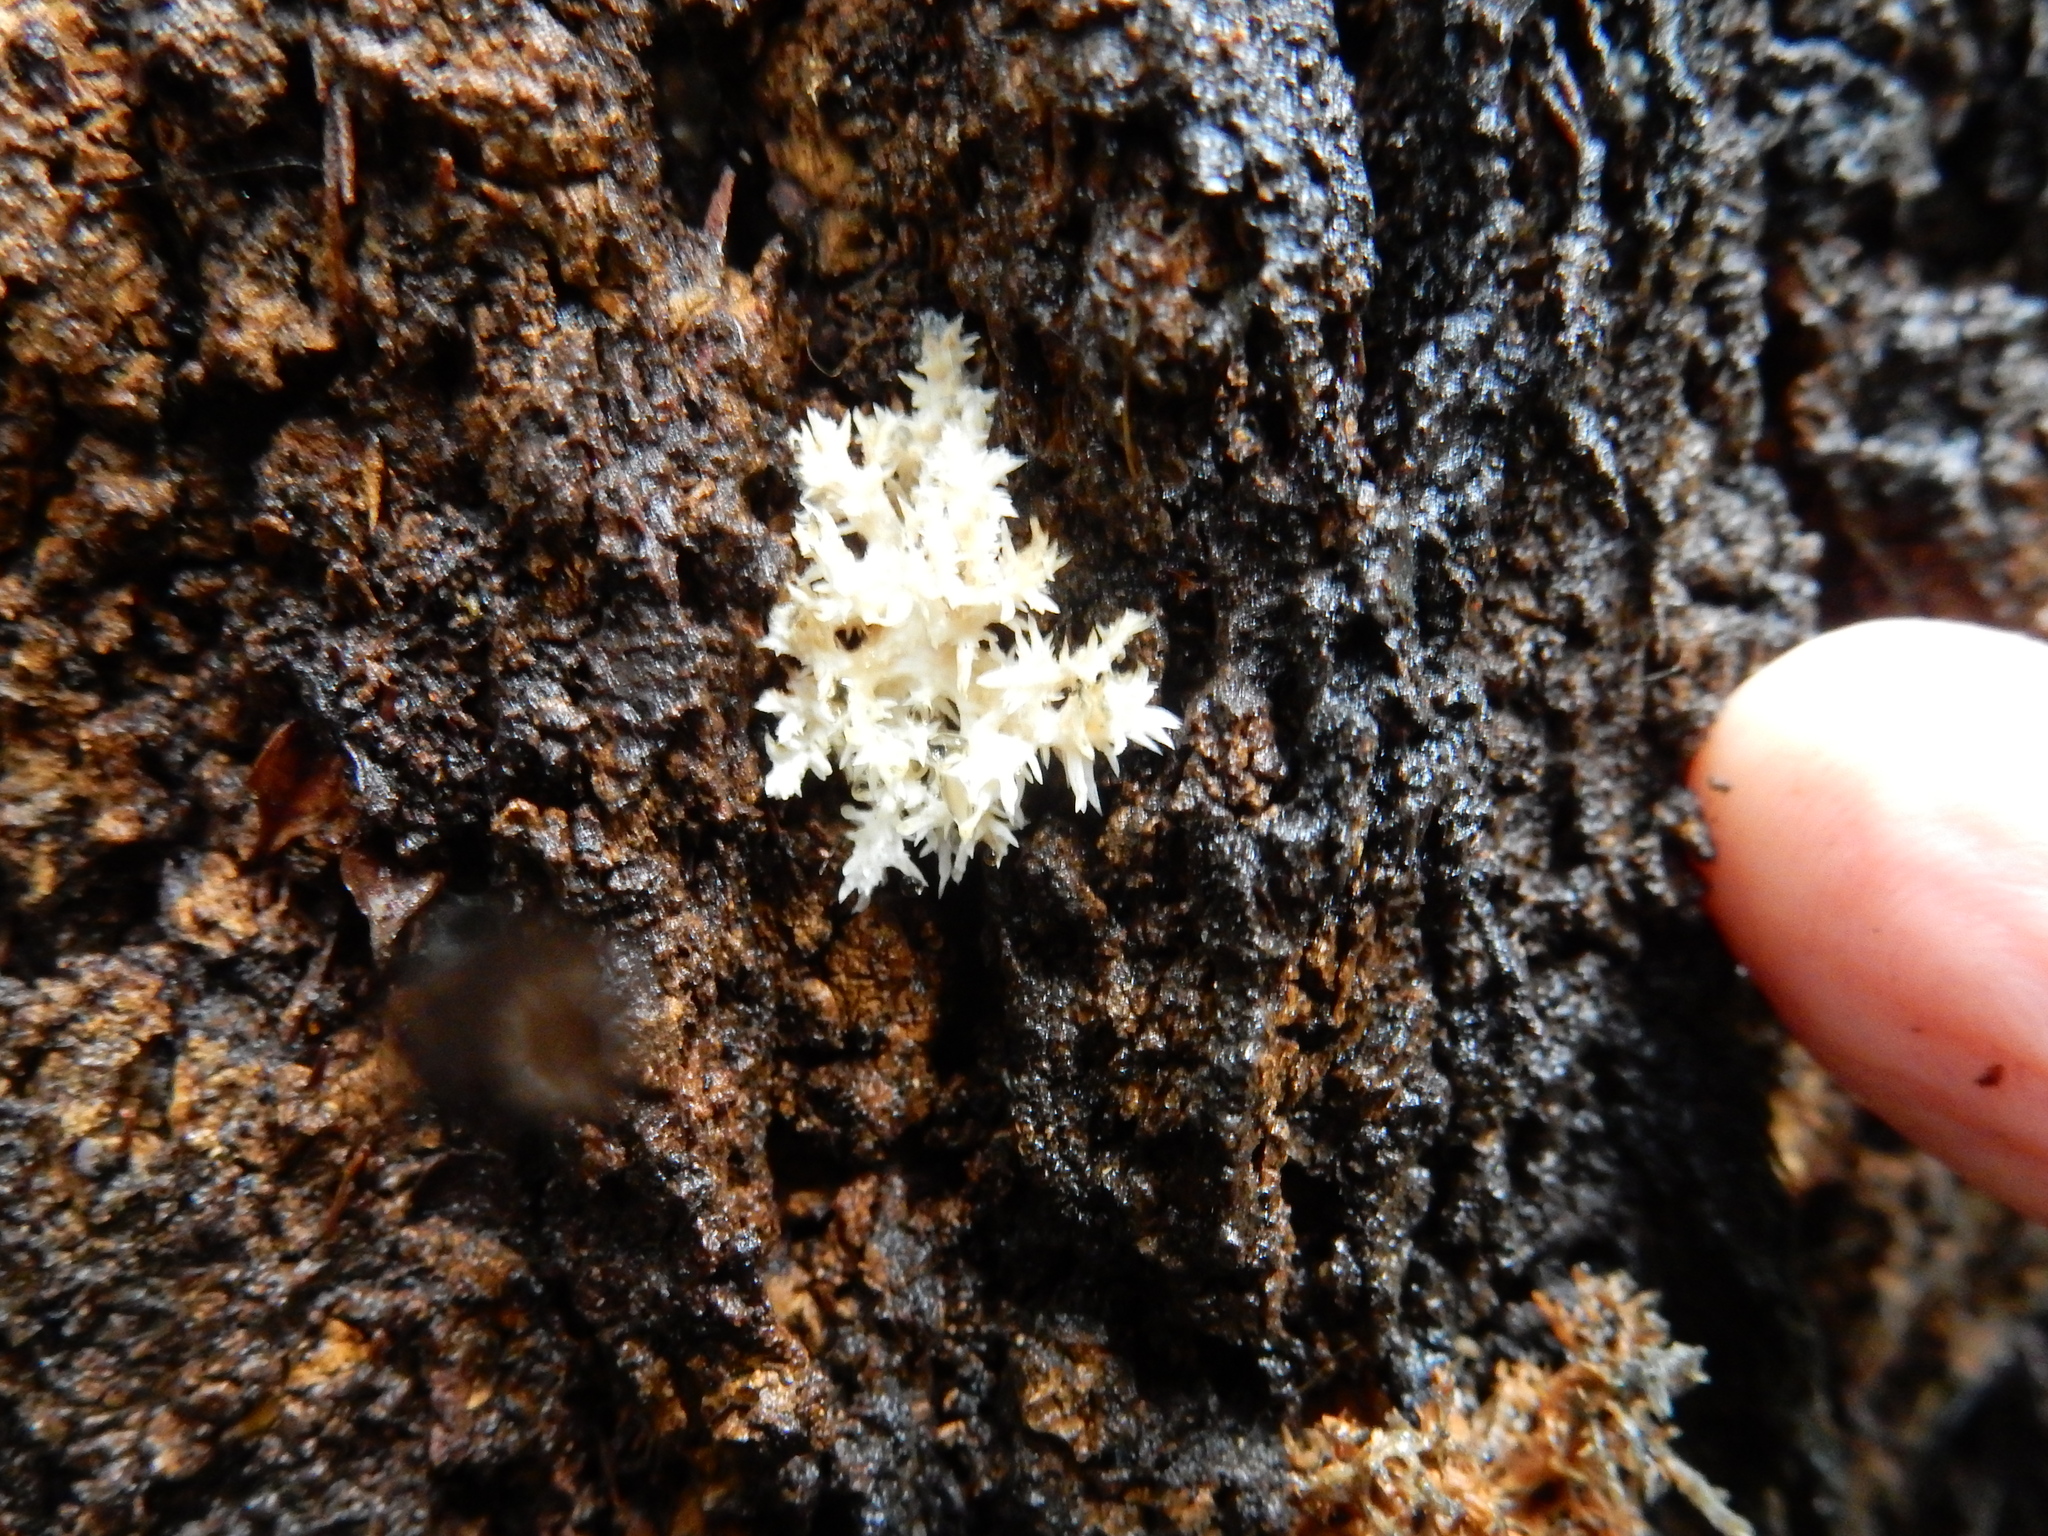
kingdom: Fungi
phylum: Basidiomycota
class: Agaricomycetes
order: Russulales
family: Hericiaceae
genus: Hericium
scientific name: Hericium novae-zealandiae
